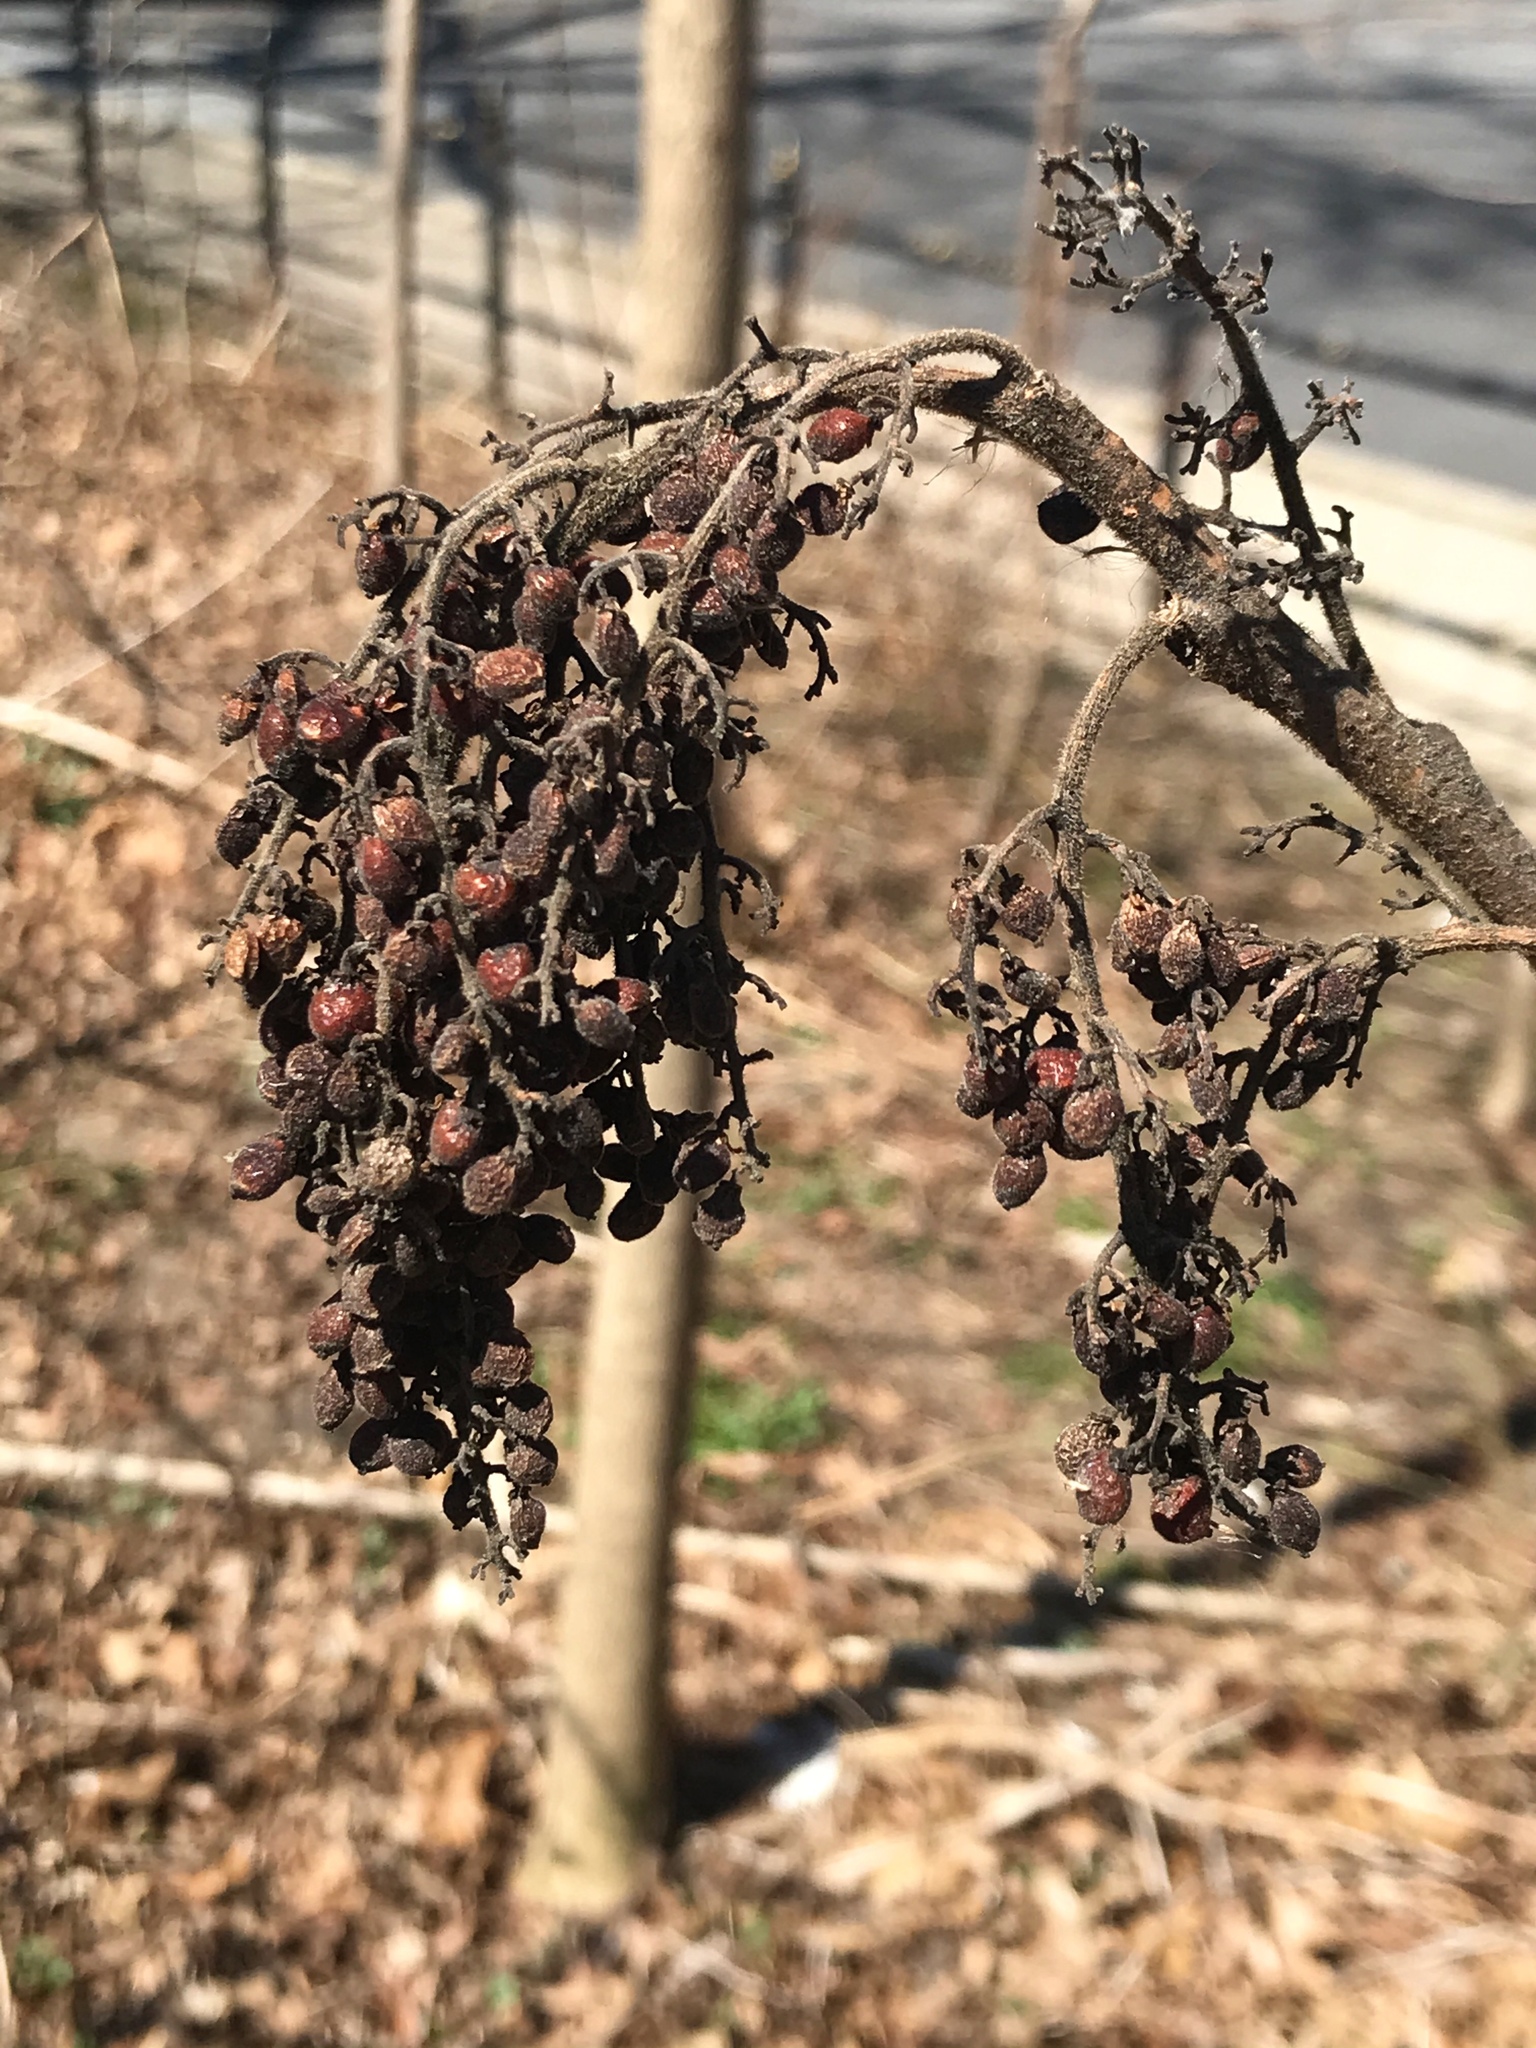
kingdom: Plantae
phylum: Tracheophyta
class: Magnoliopsida
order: Sapindales
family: Anacardiaceae
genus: Rhus
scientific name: Rhus glabra
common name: Scarlet sumac
